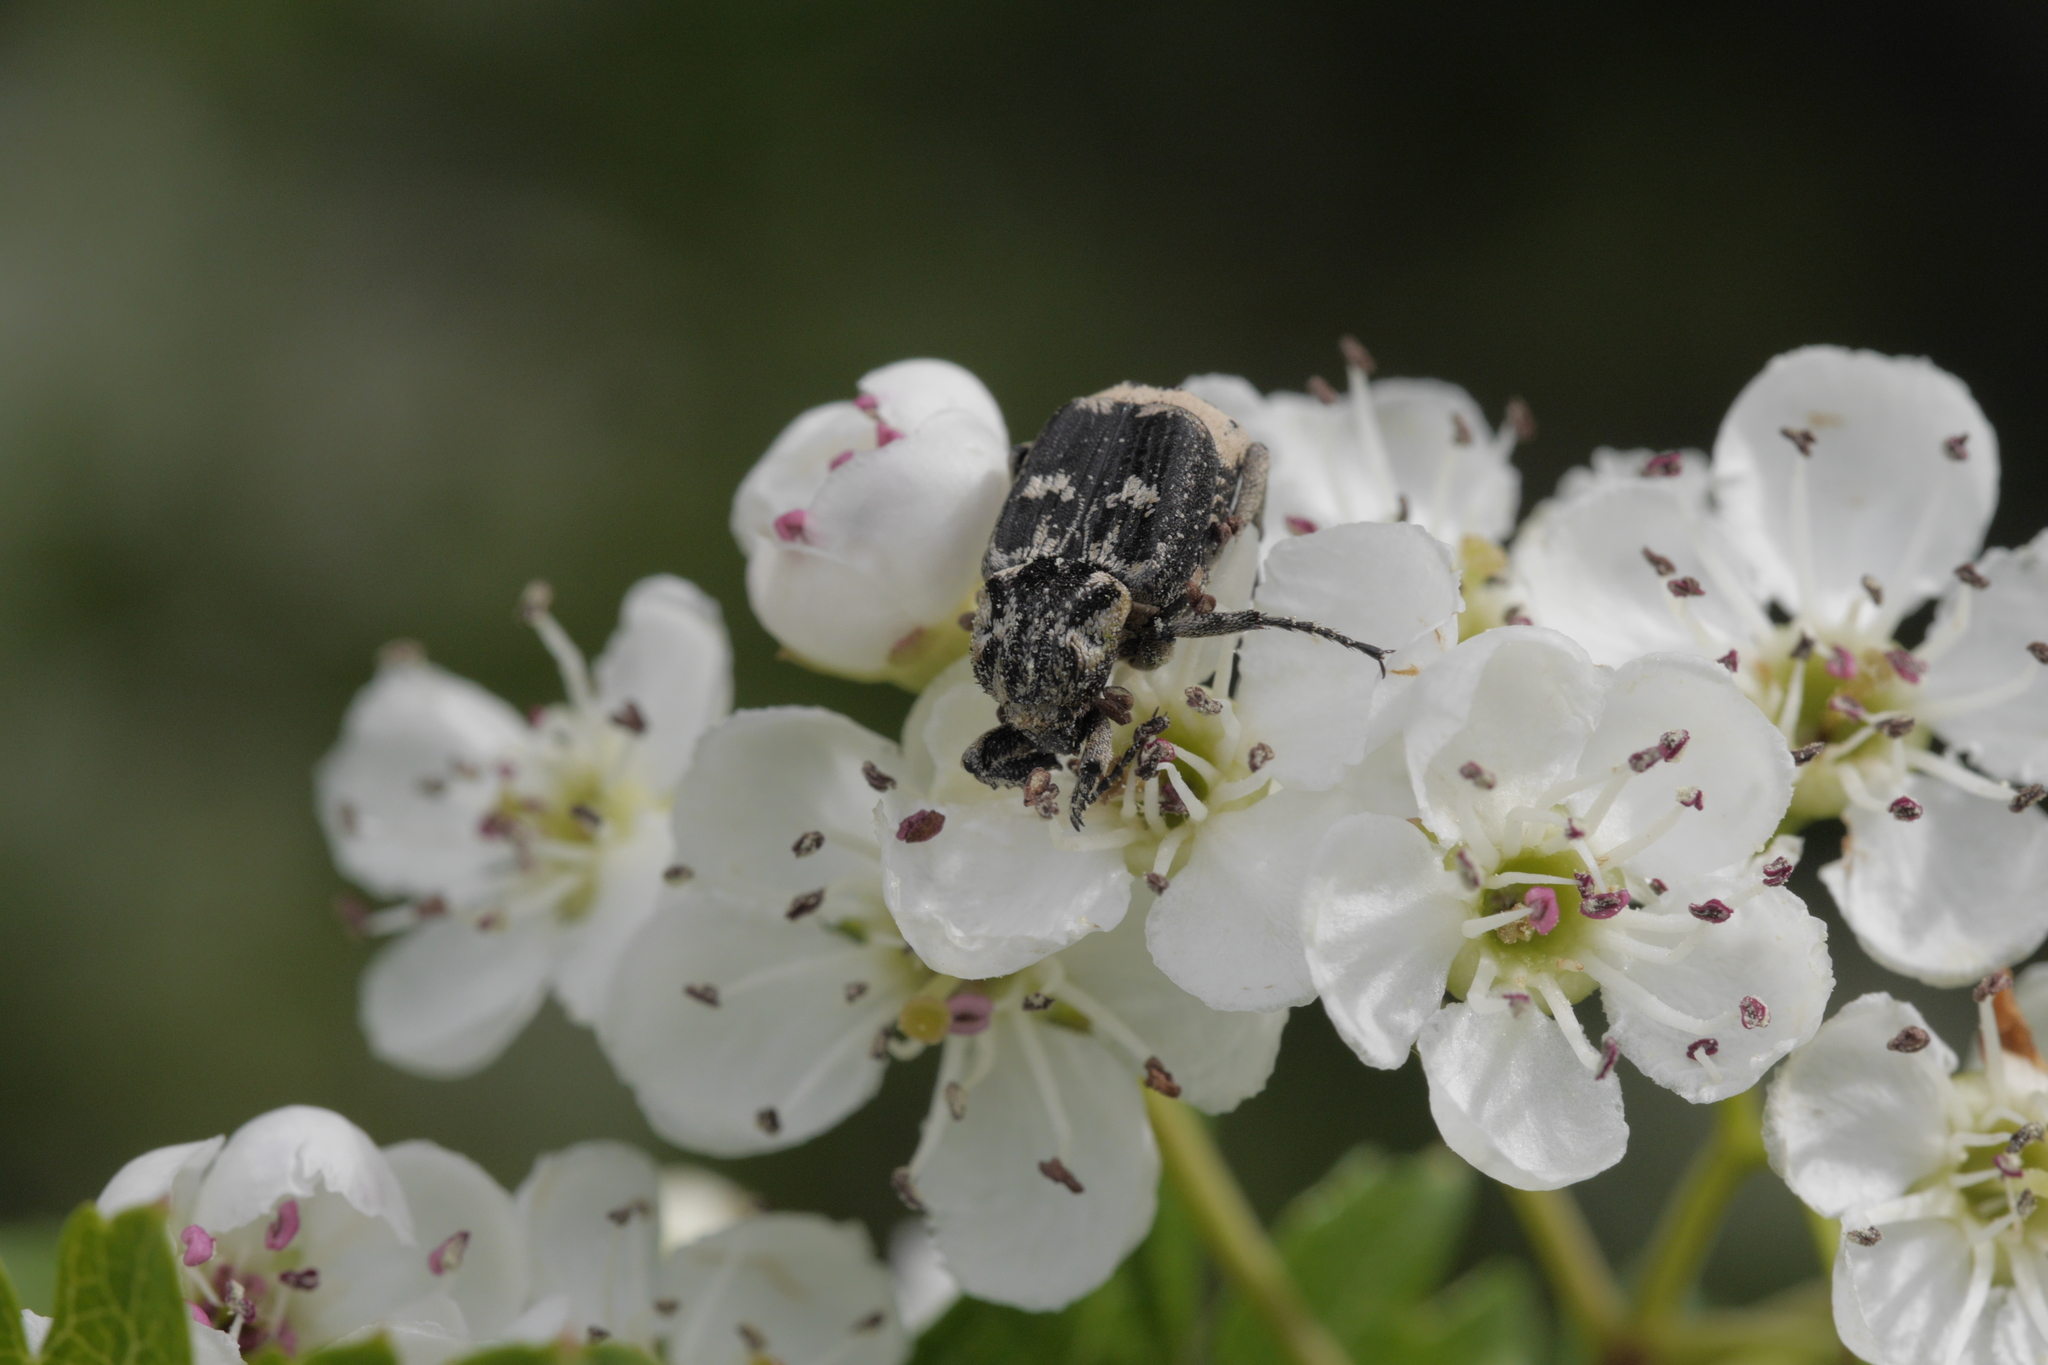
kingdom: Animalia
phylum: Arthropoda
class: Insecta
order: Coleoptera
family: Scarabaeidae
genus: Valgus
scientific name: Valgus hemipterus
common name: Bug flower chafer
